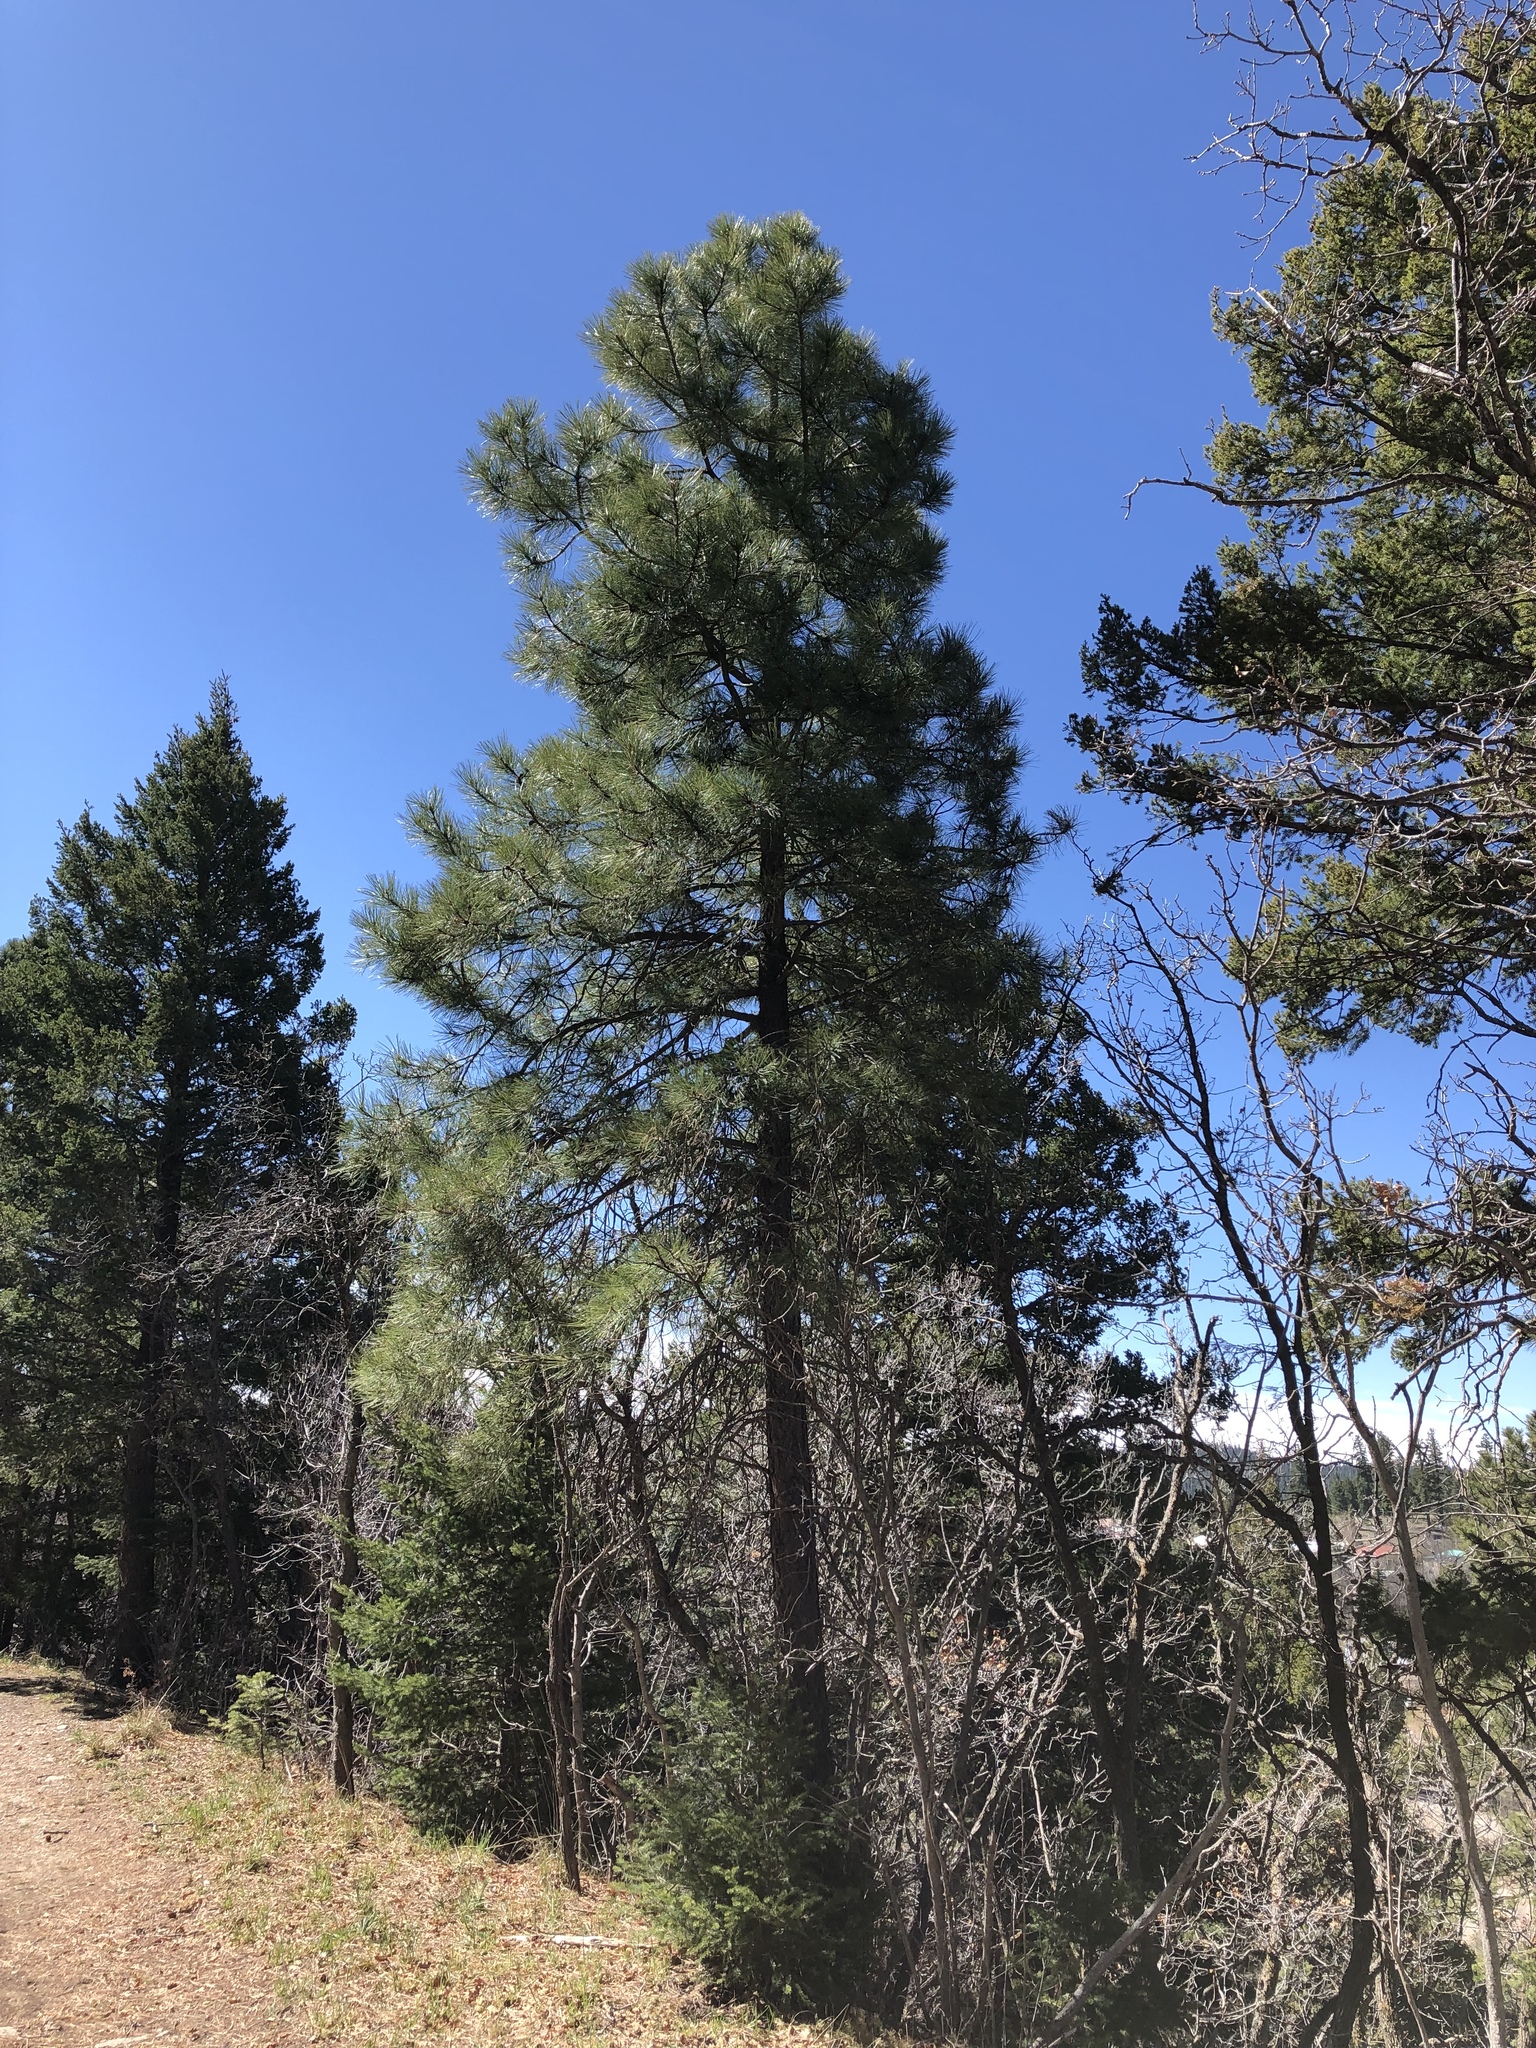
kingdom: Plantae
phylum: Tracheophyta
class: Pinopsida
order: Pinales
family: Pinaceae
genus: Pinus
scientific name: Pinus ponderosa
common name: Western yellow-pine
